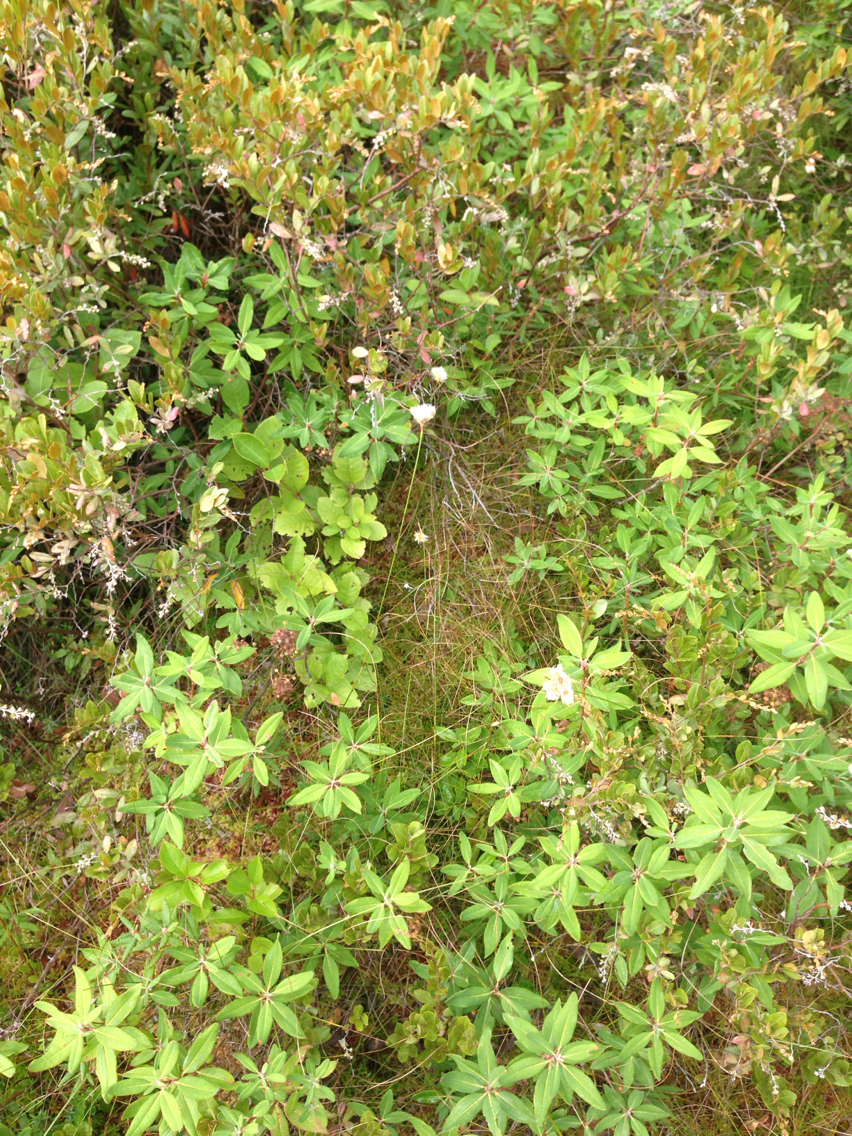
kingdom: Plantae
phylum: Tracheophyta
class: Liliopsida
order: Poales
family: Cyperaceae
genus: Eriophorum
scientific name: Eriophorum virginicum
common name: Tawny cottongrass
